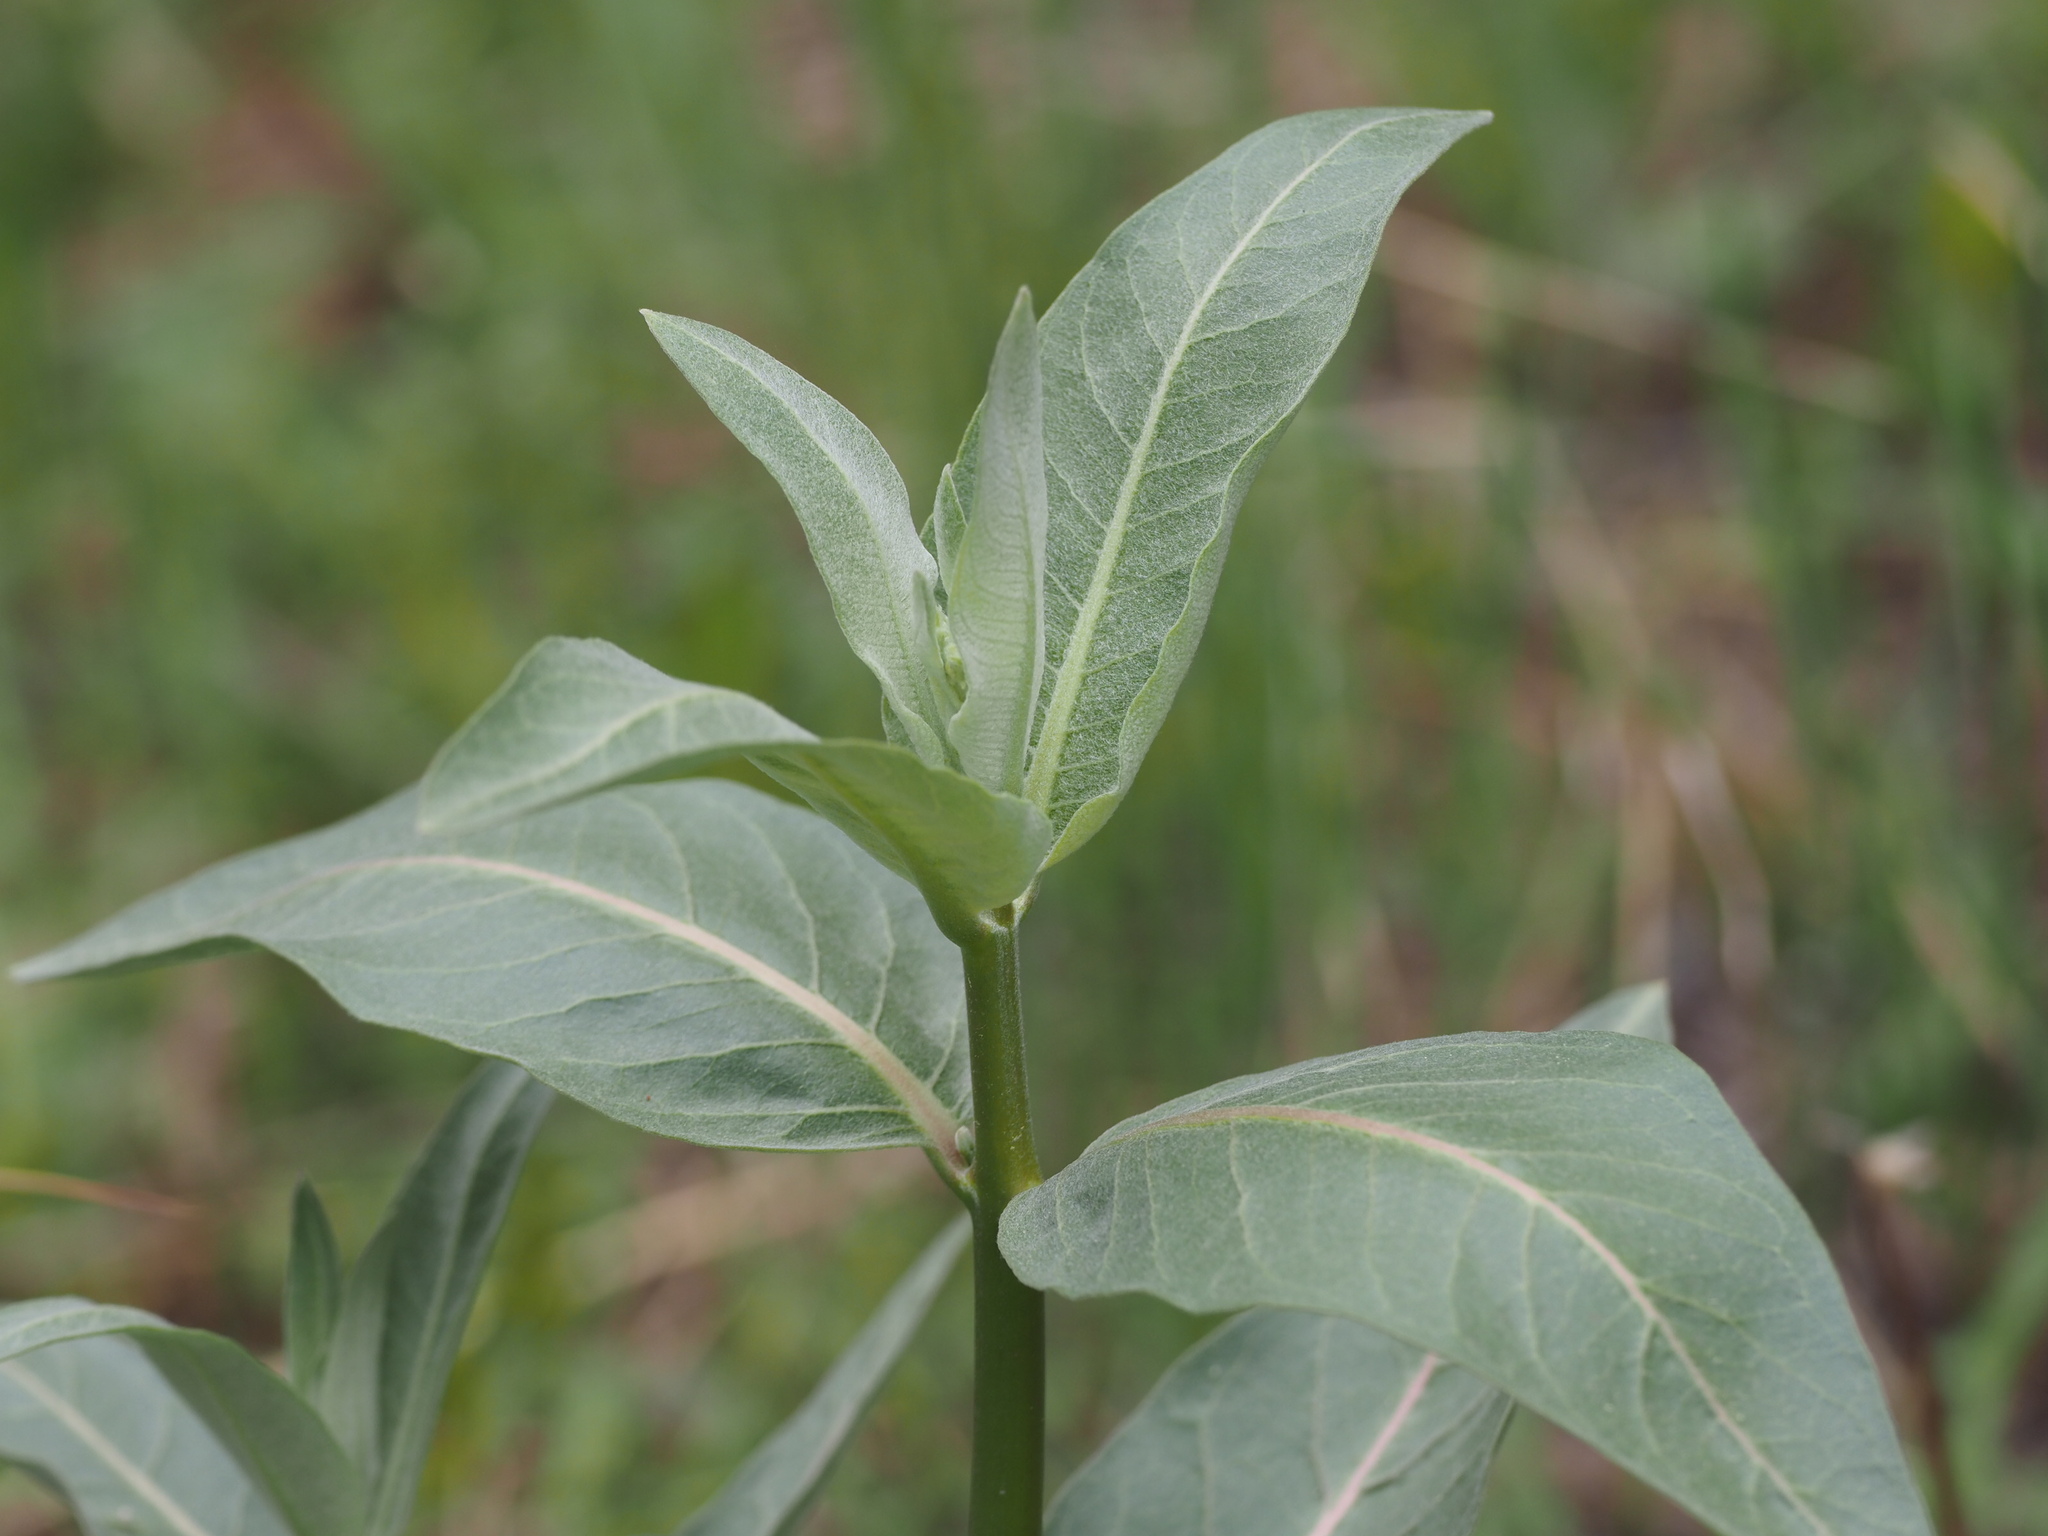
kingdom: Plantae
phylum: Tracheophyta
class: Magnoliopsida
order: Gentianales
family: Apocynaceae
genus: Asclepias
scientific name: Asclepias speciosa
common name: Showy milkweed
